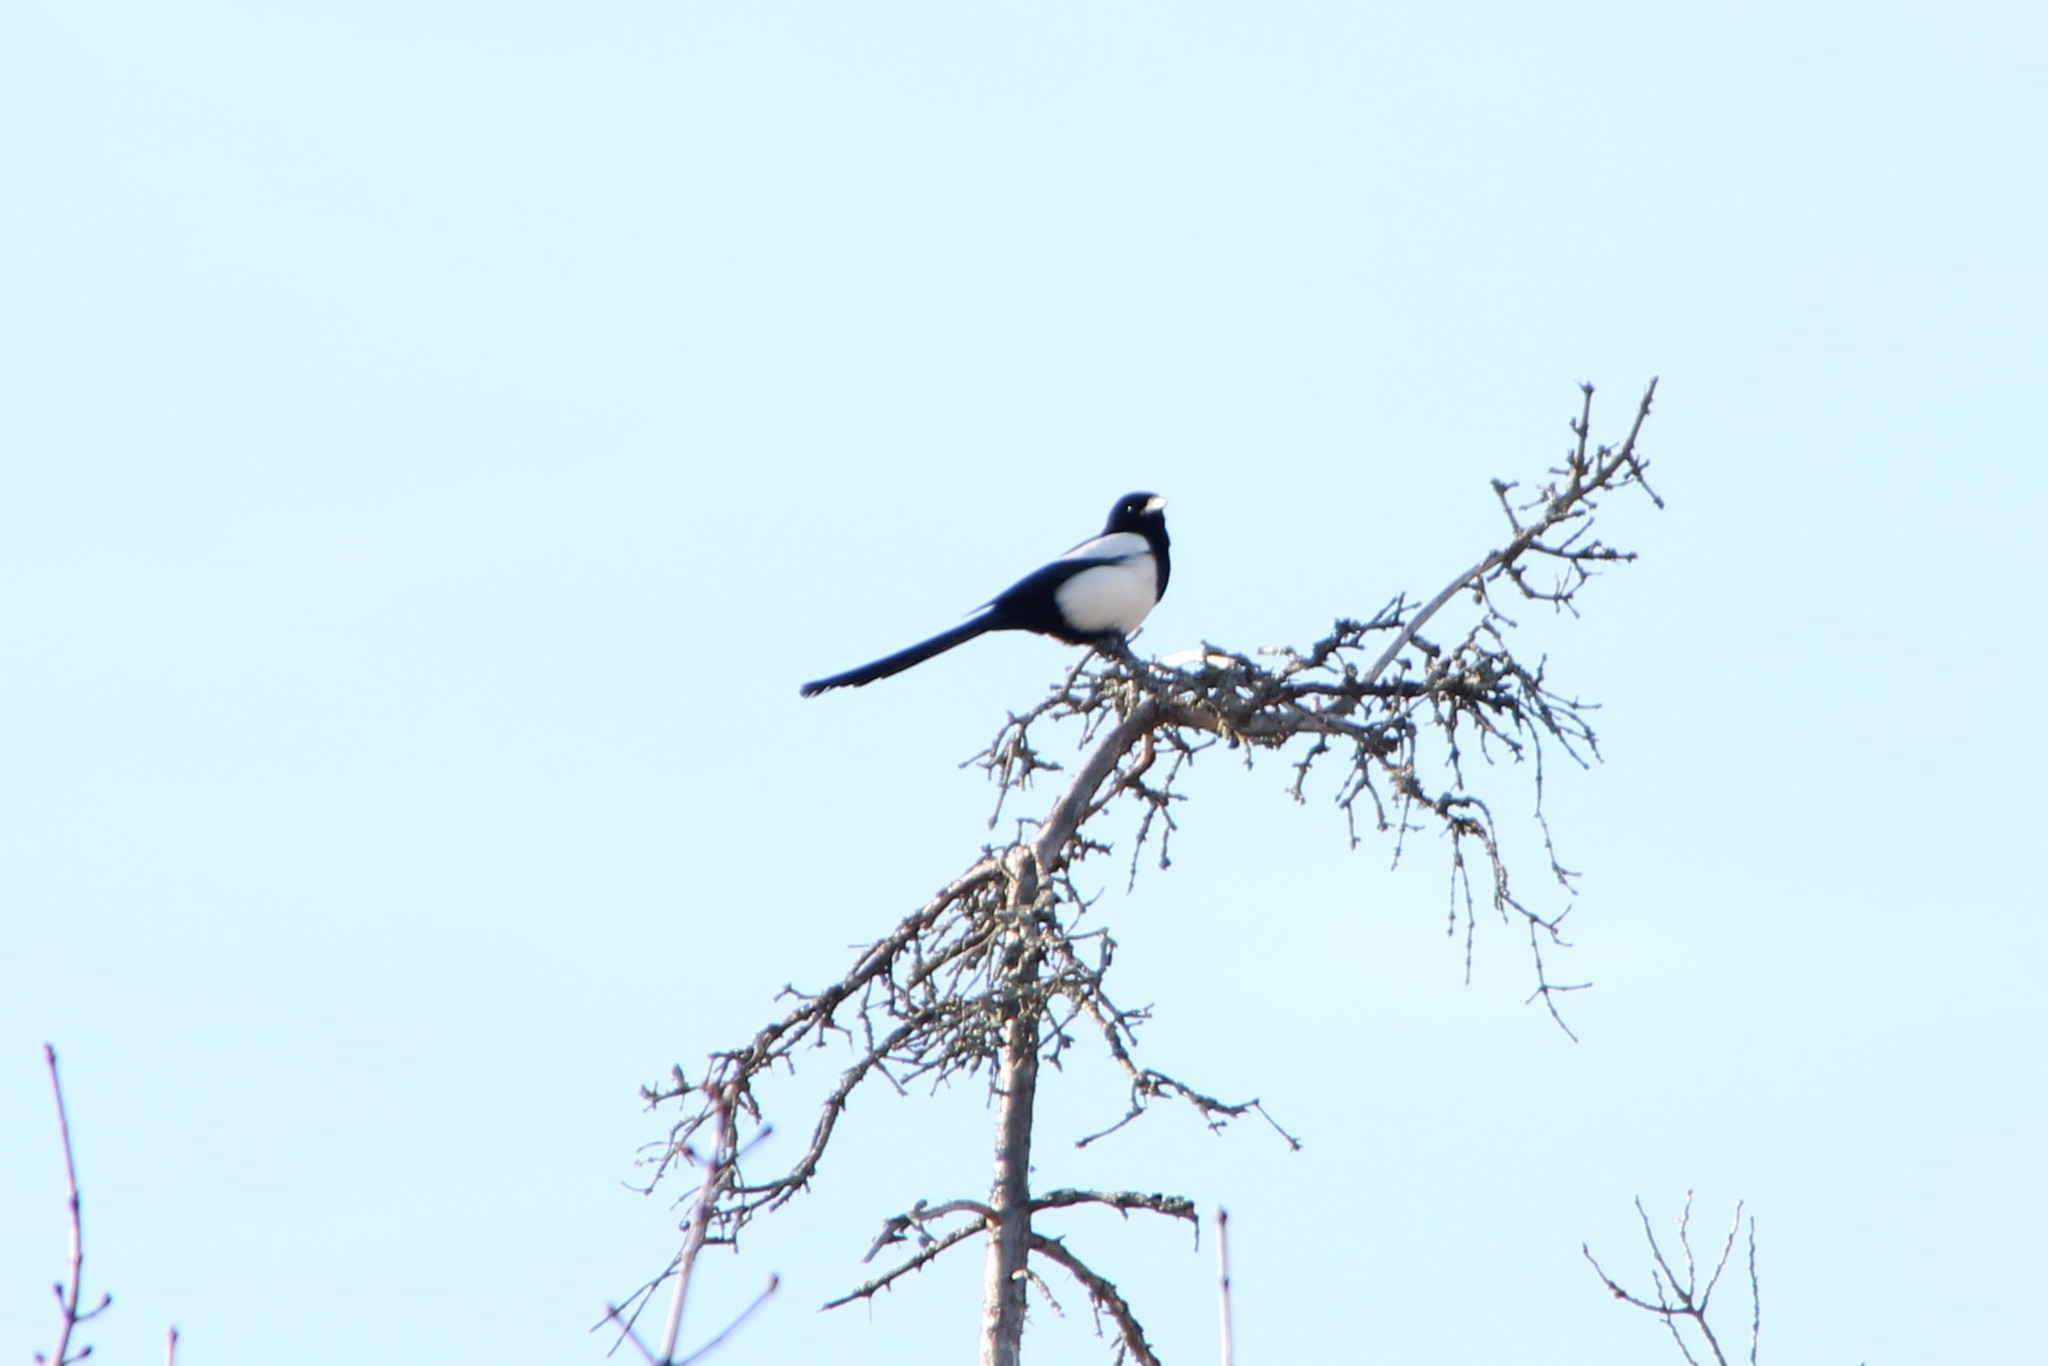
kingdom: Animalia
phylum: Chordata
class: Aves
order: Passeriformes
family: Corvidae
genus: Pica
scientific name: Pica pica
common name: Eurasian magpie
